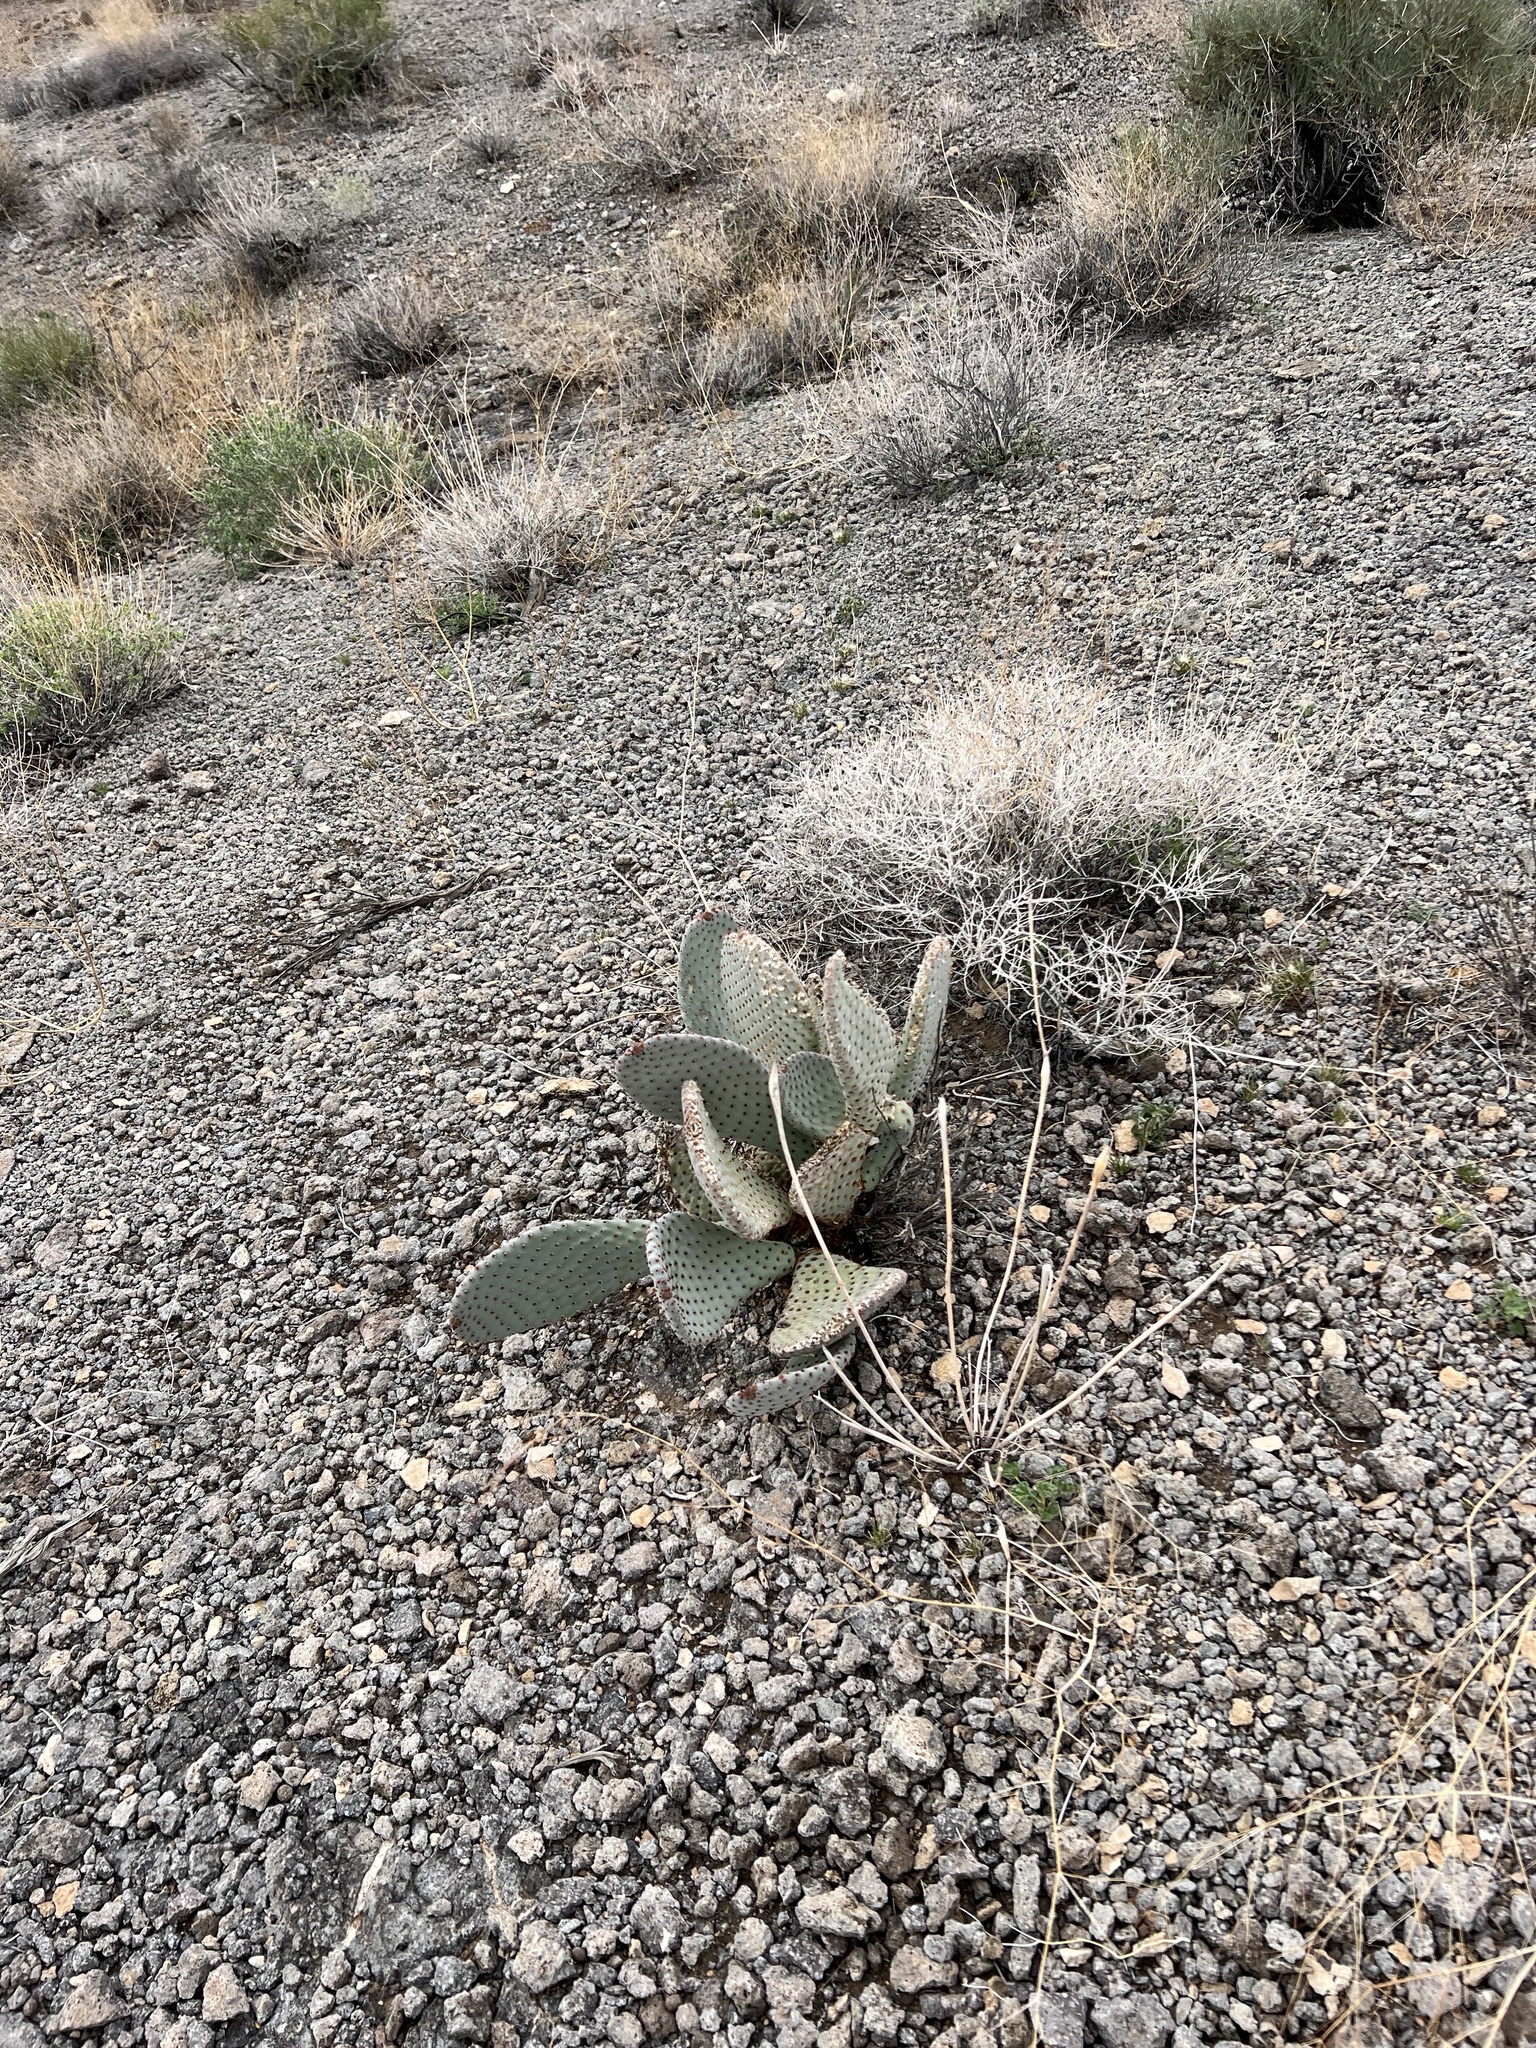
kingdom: Plantae
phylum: Tracheophyta
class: Magnoliopsida
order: Caryophyllales
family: Cactaceae
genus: Opuntia
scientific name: Opuntia basilaris
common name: Beavertail prickly-pear
